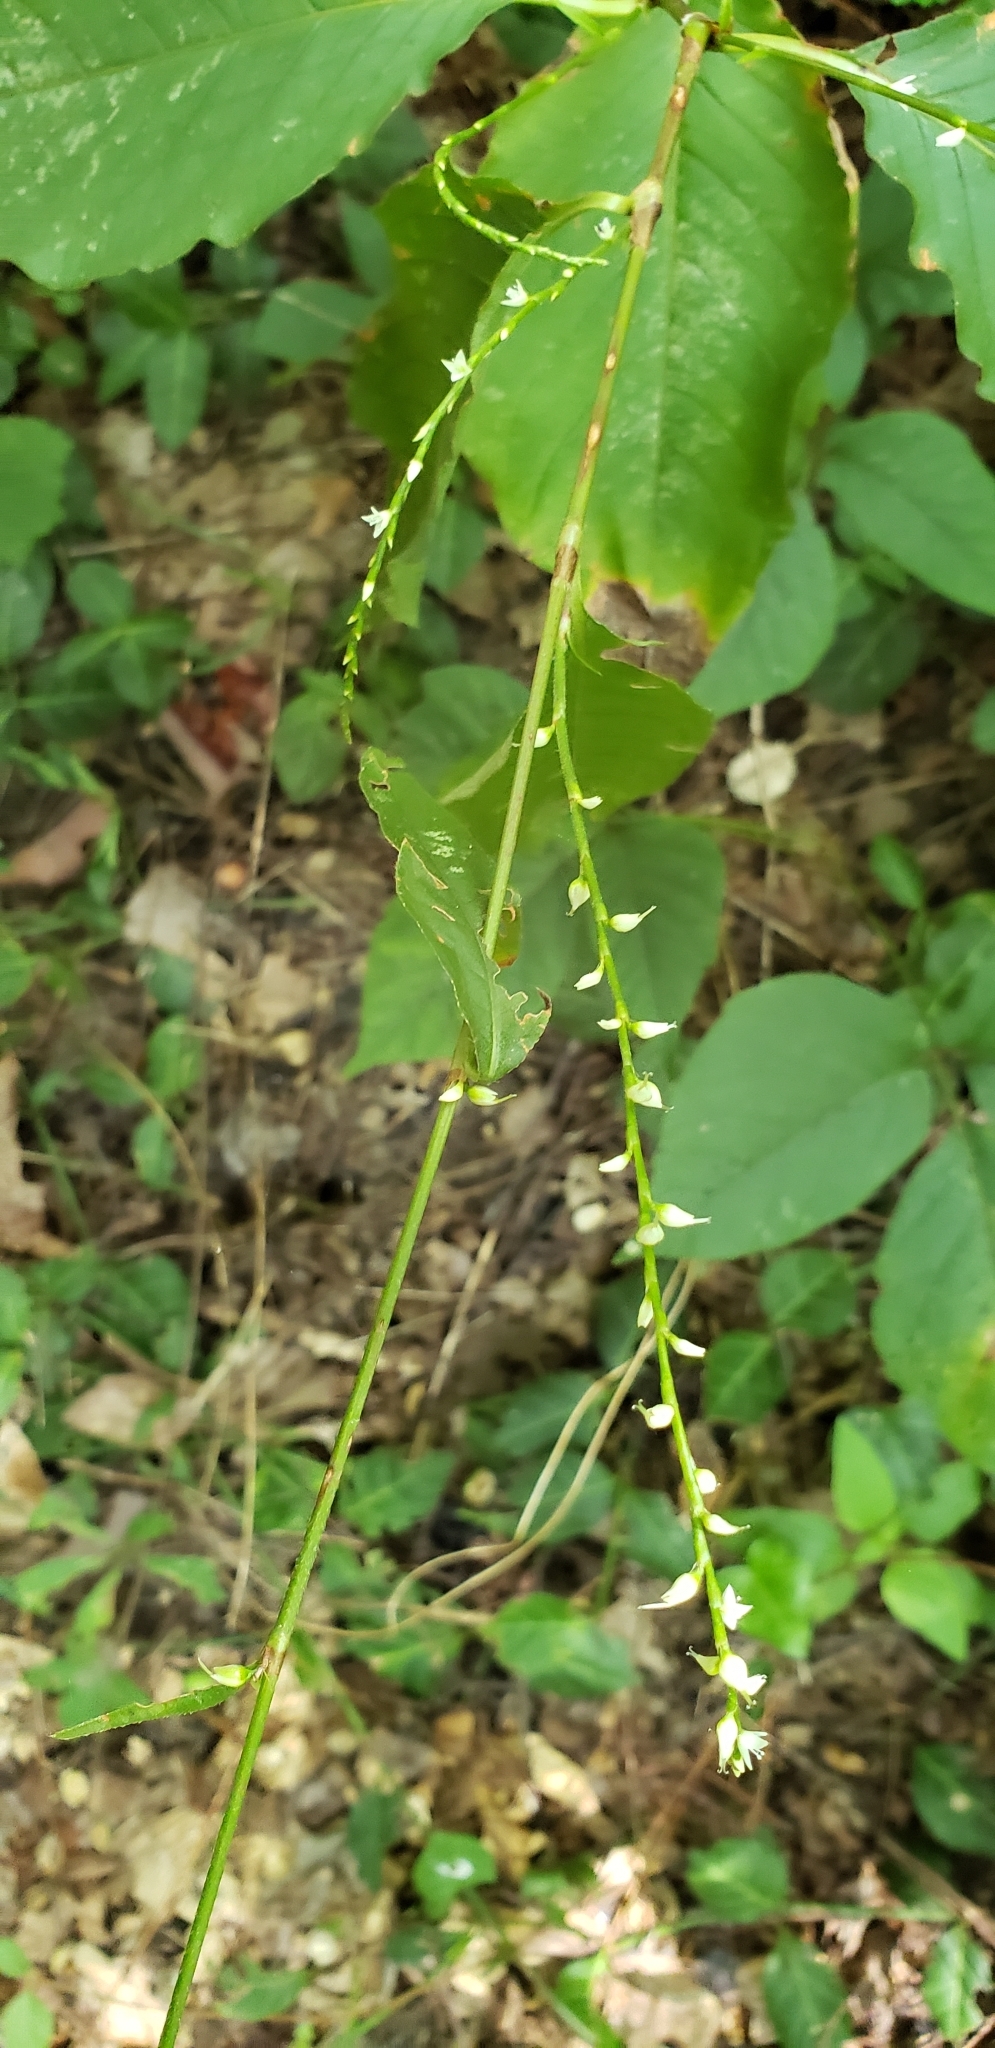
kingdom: Plantae
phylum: Tracheophyta
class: Magnoliopsida
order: Caryophyllales
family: Polygonaceae
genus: Persicaria
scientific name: Persicaria virginiana
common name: Jumpseed
